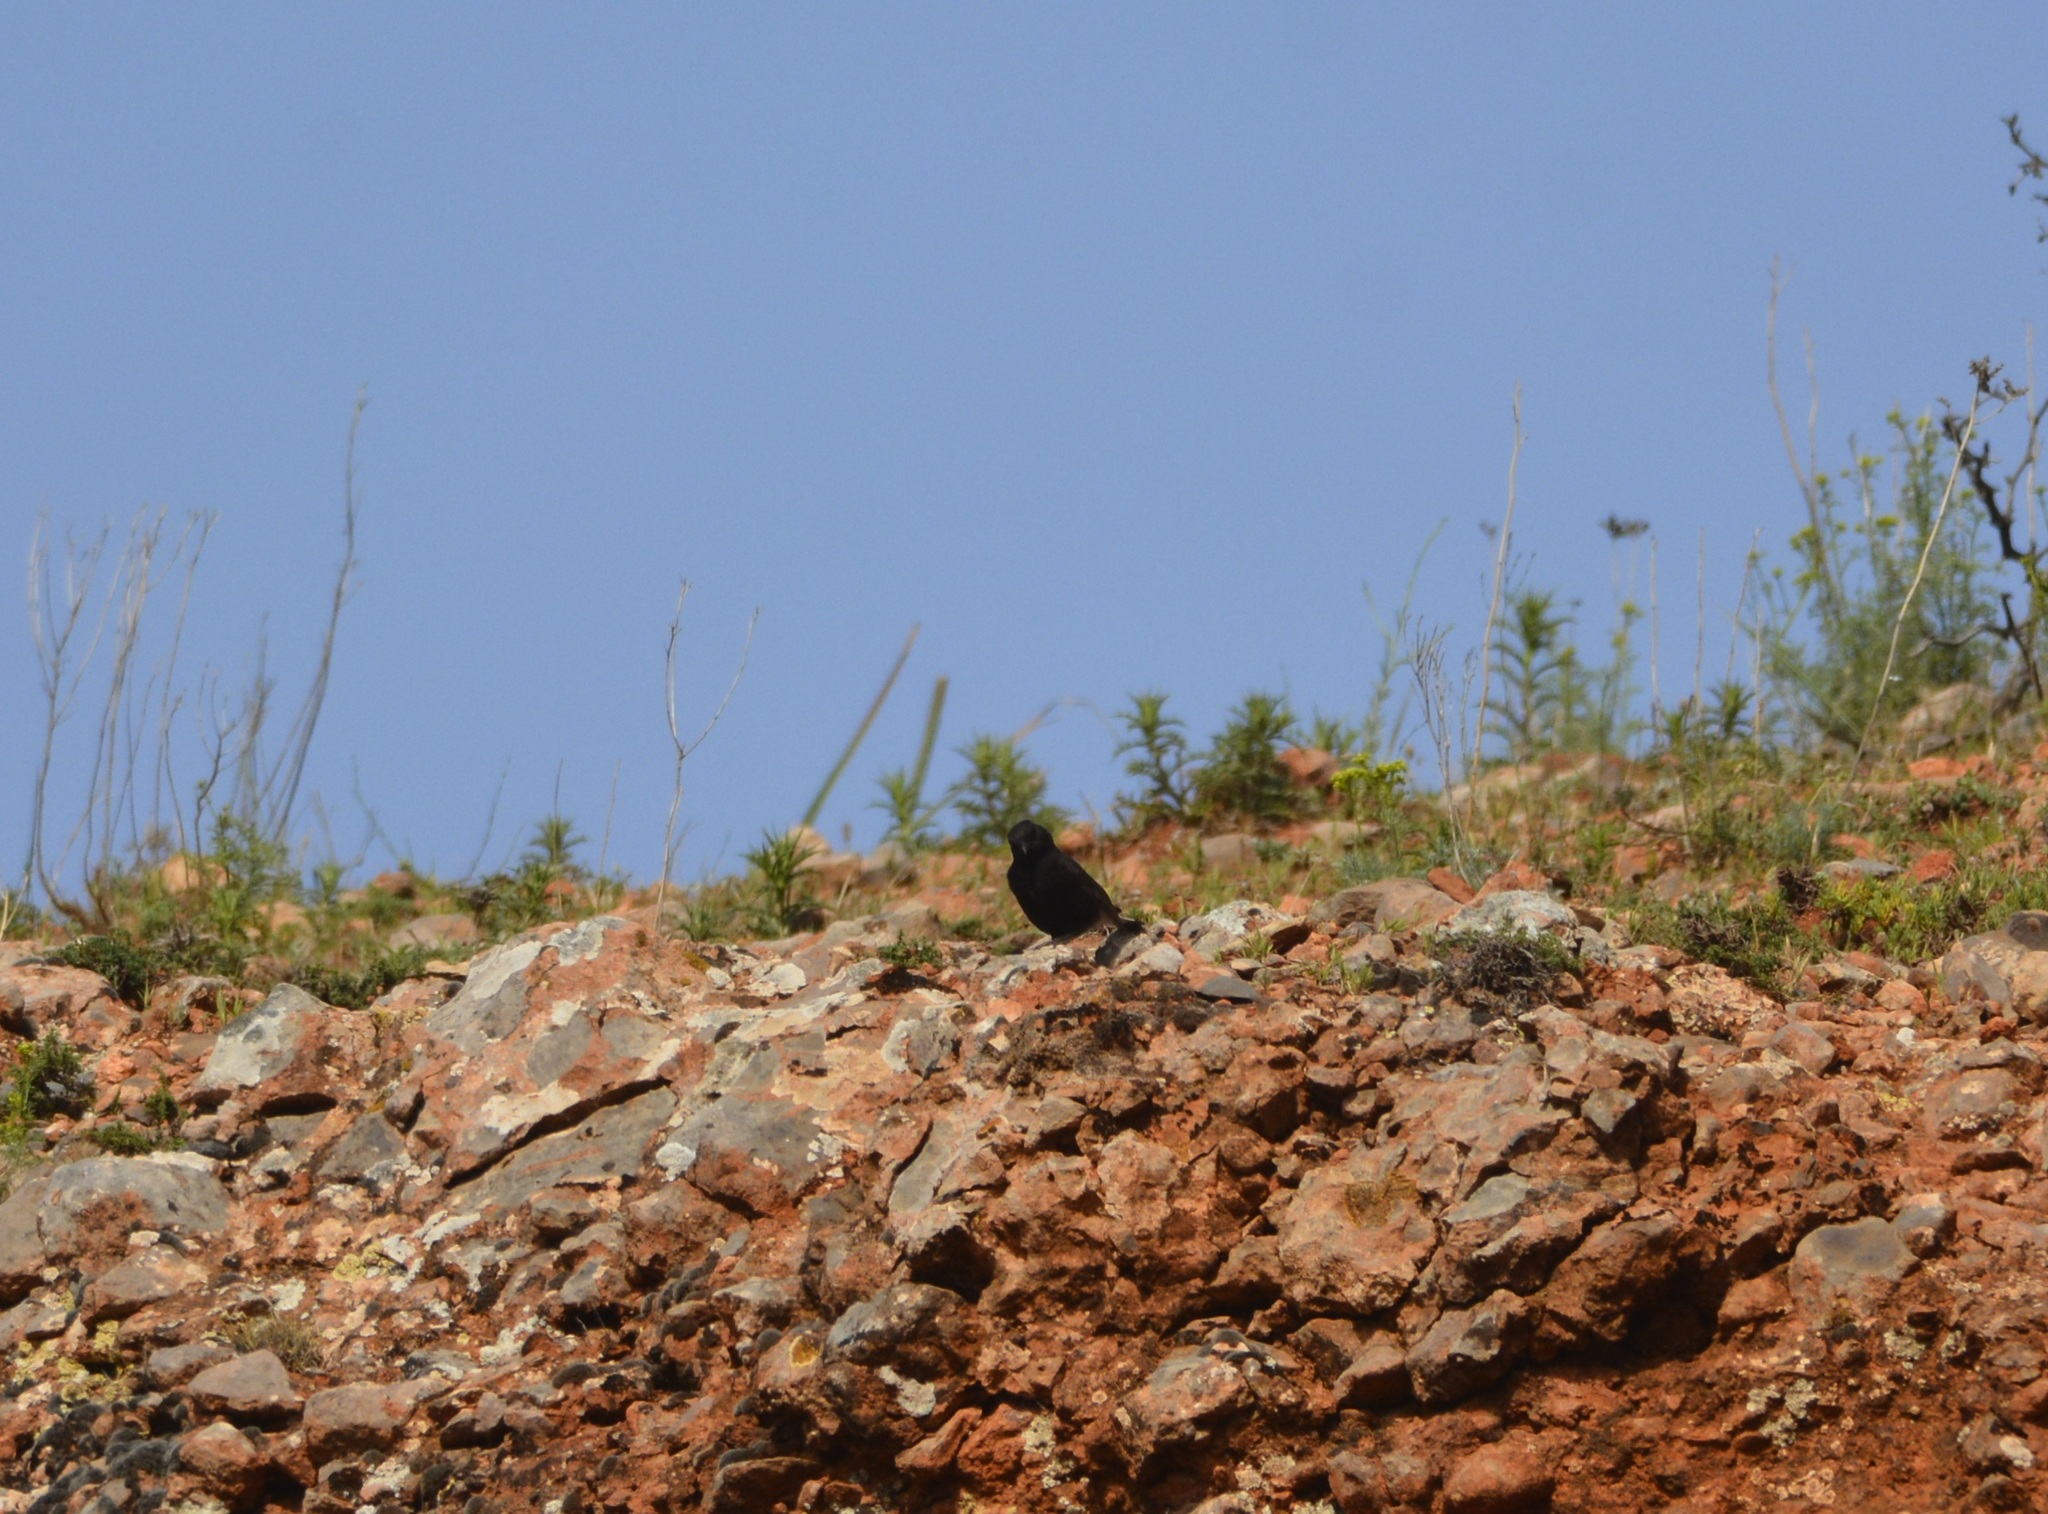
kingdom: Animalia
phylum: Chordata
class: Aves
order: Passeriformes
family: Muscicapidae
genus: Oenanthe
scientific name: Oenanthe leucura
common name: Black wheatear
